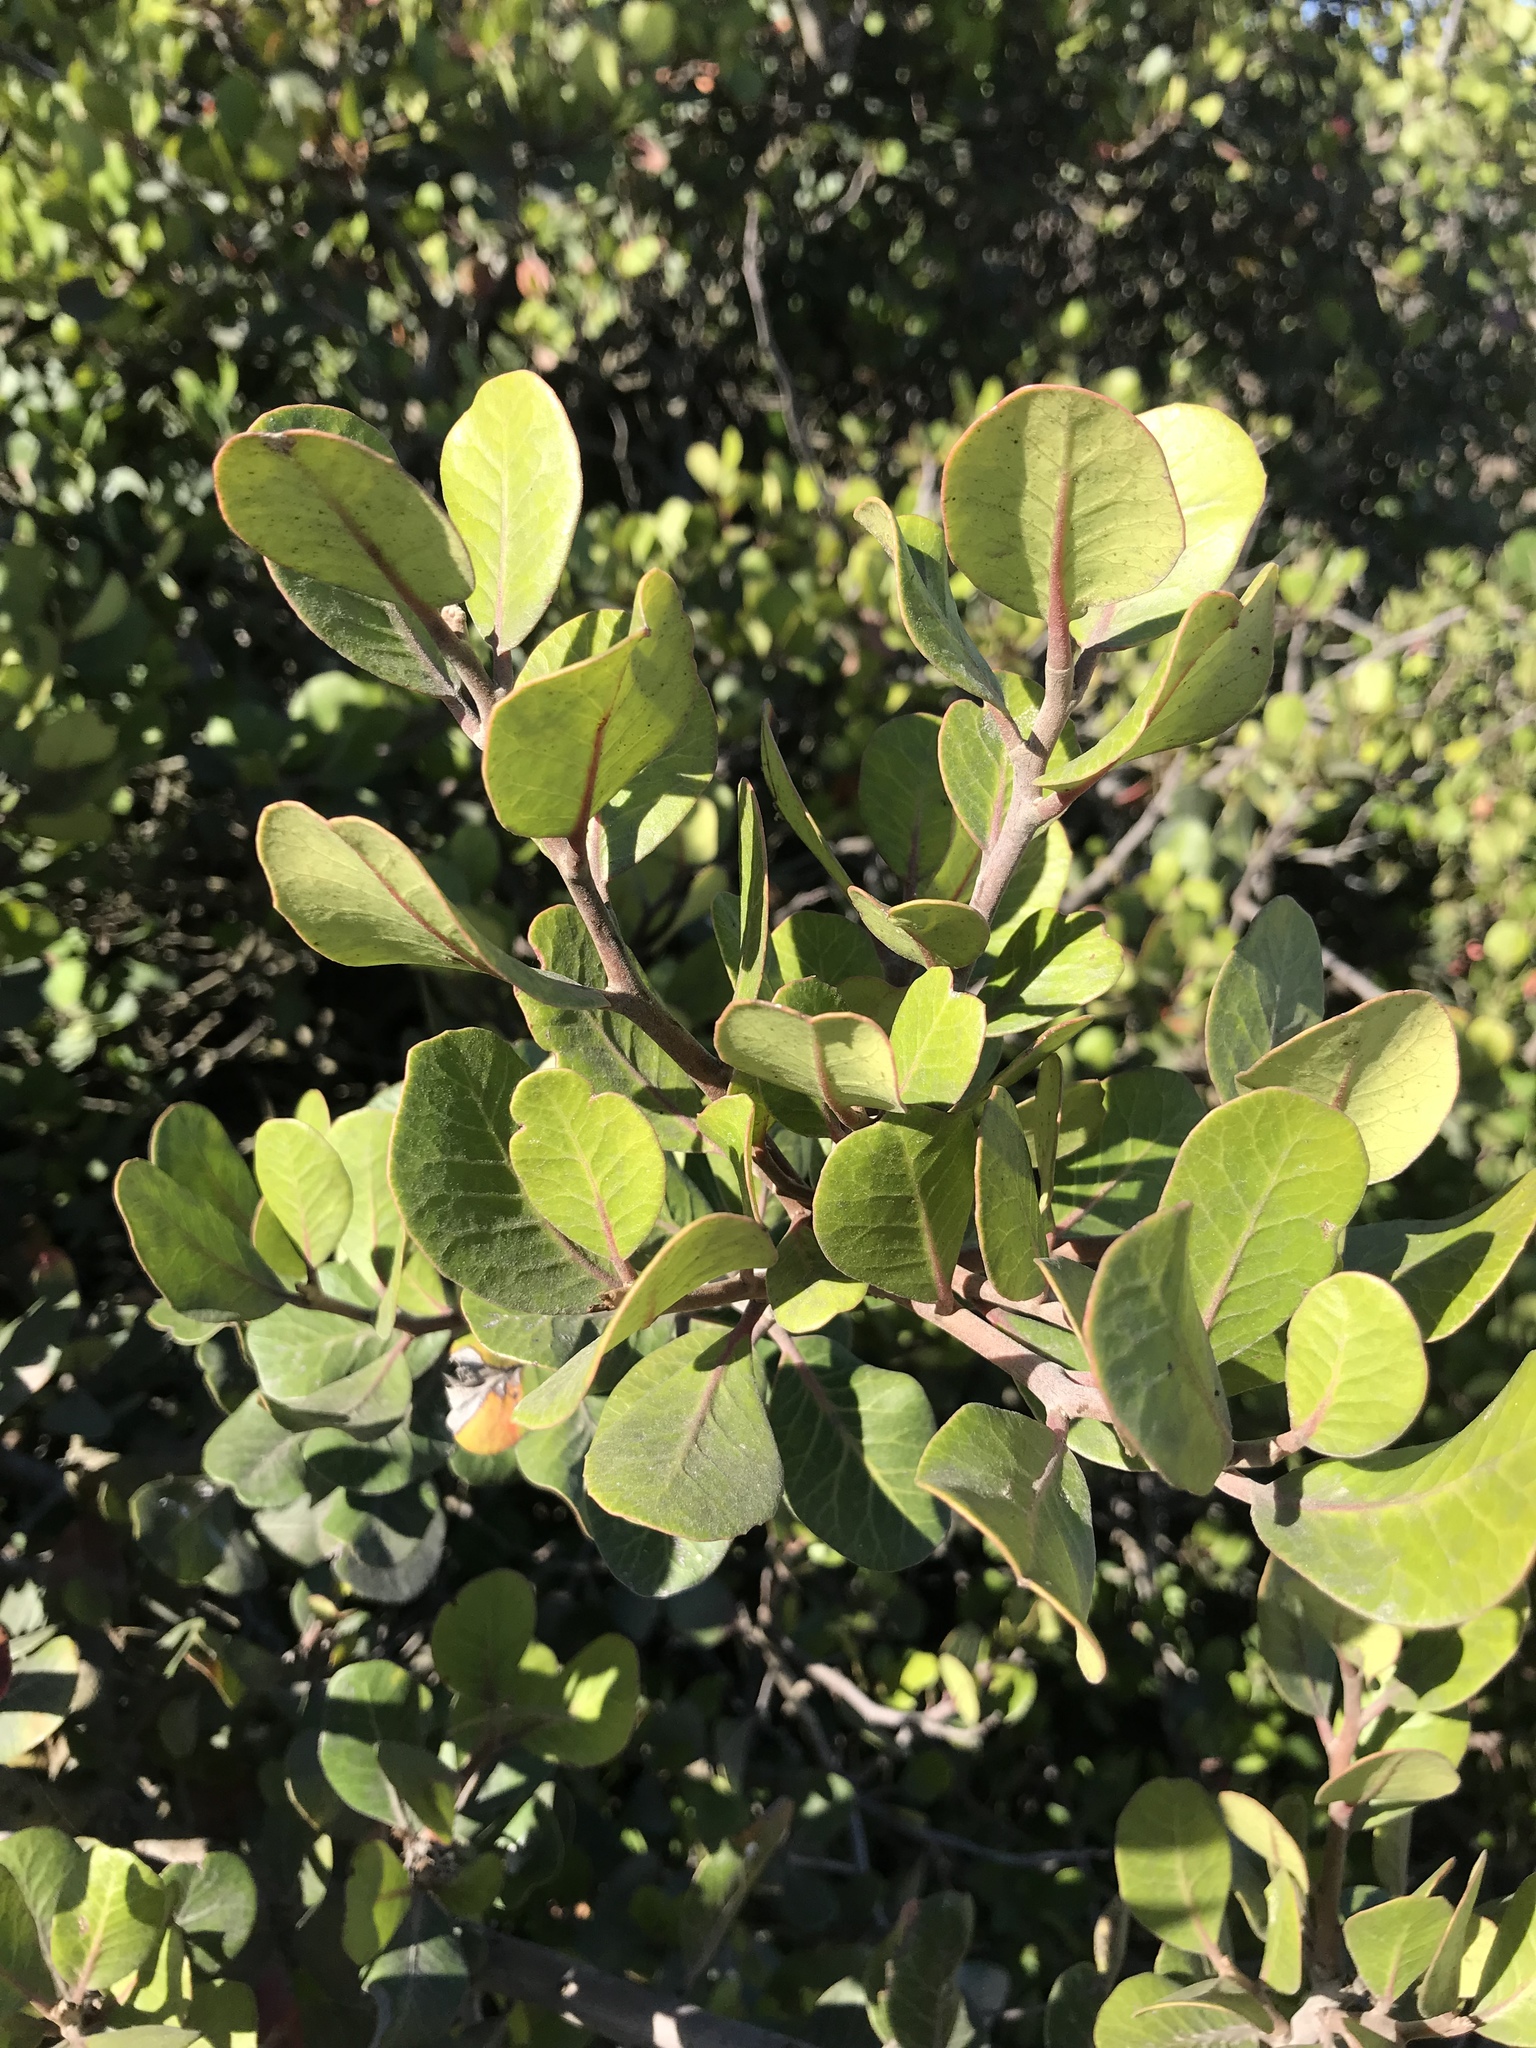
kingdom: Plantae
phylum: Tracheophyta
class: Magnoliopsida
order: Sapindales
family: Anacardiaceae
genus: Rhus
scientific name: Rhus integrifolia
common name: Lemonade sumac
